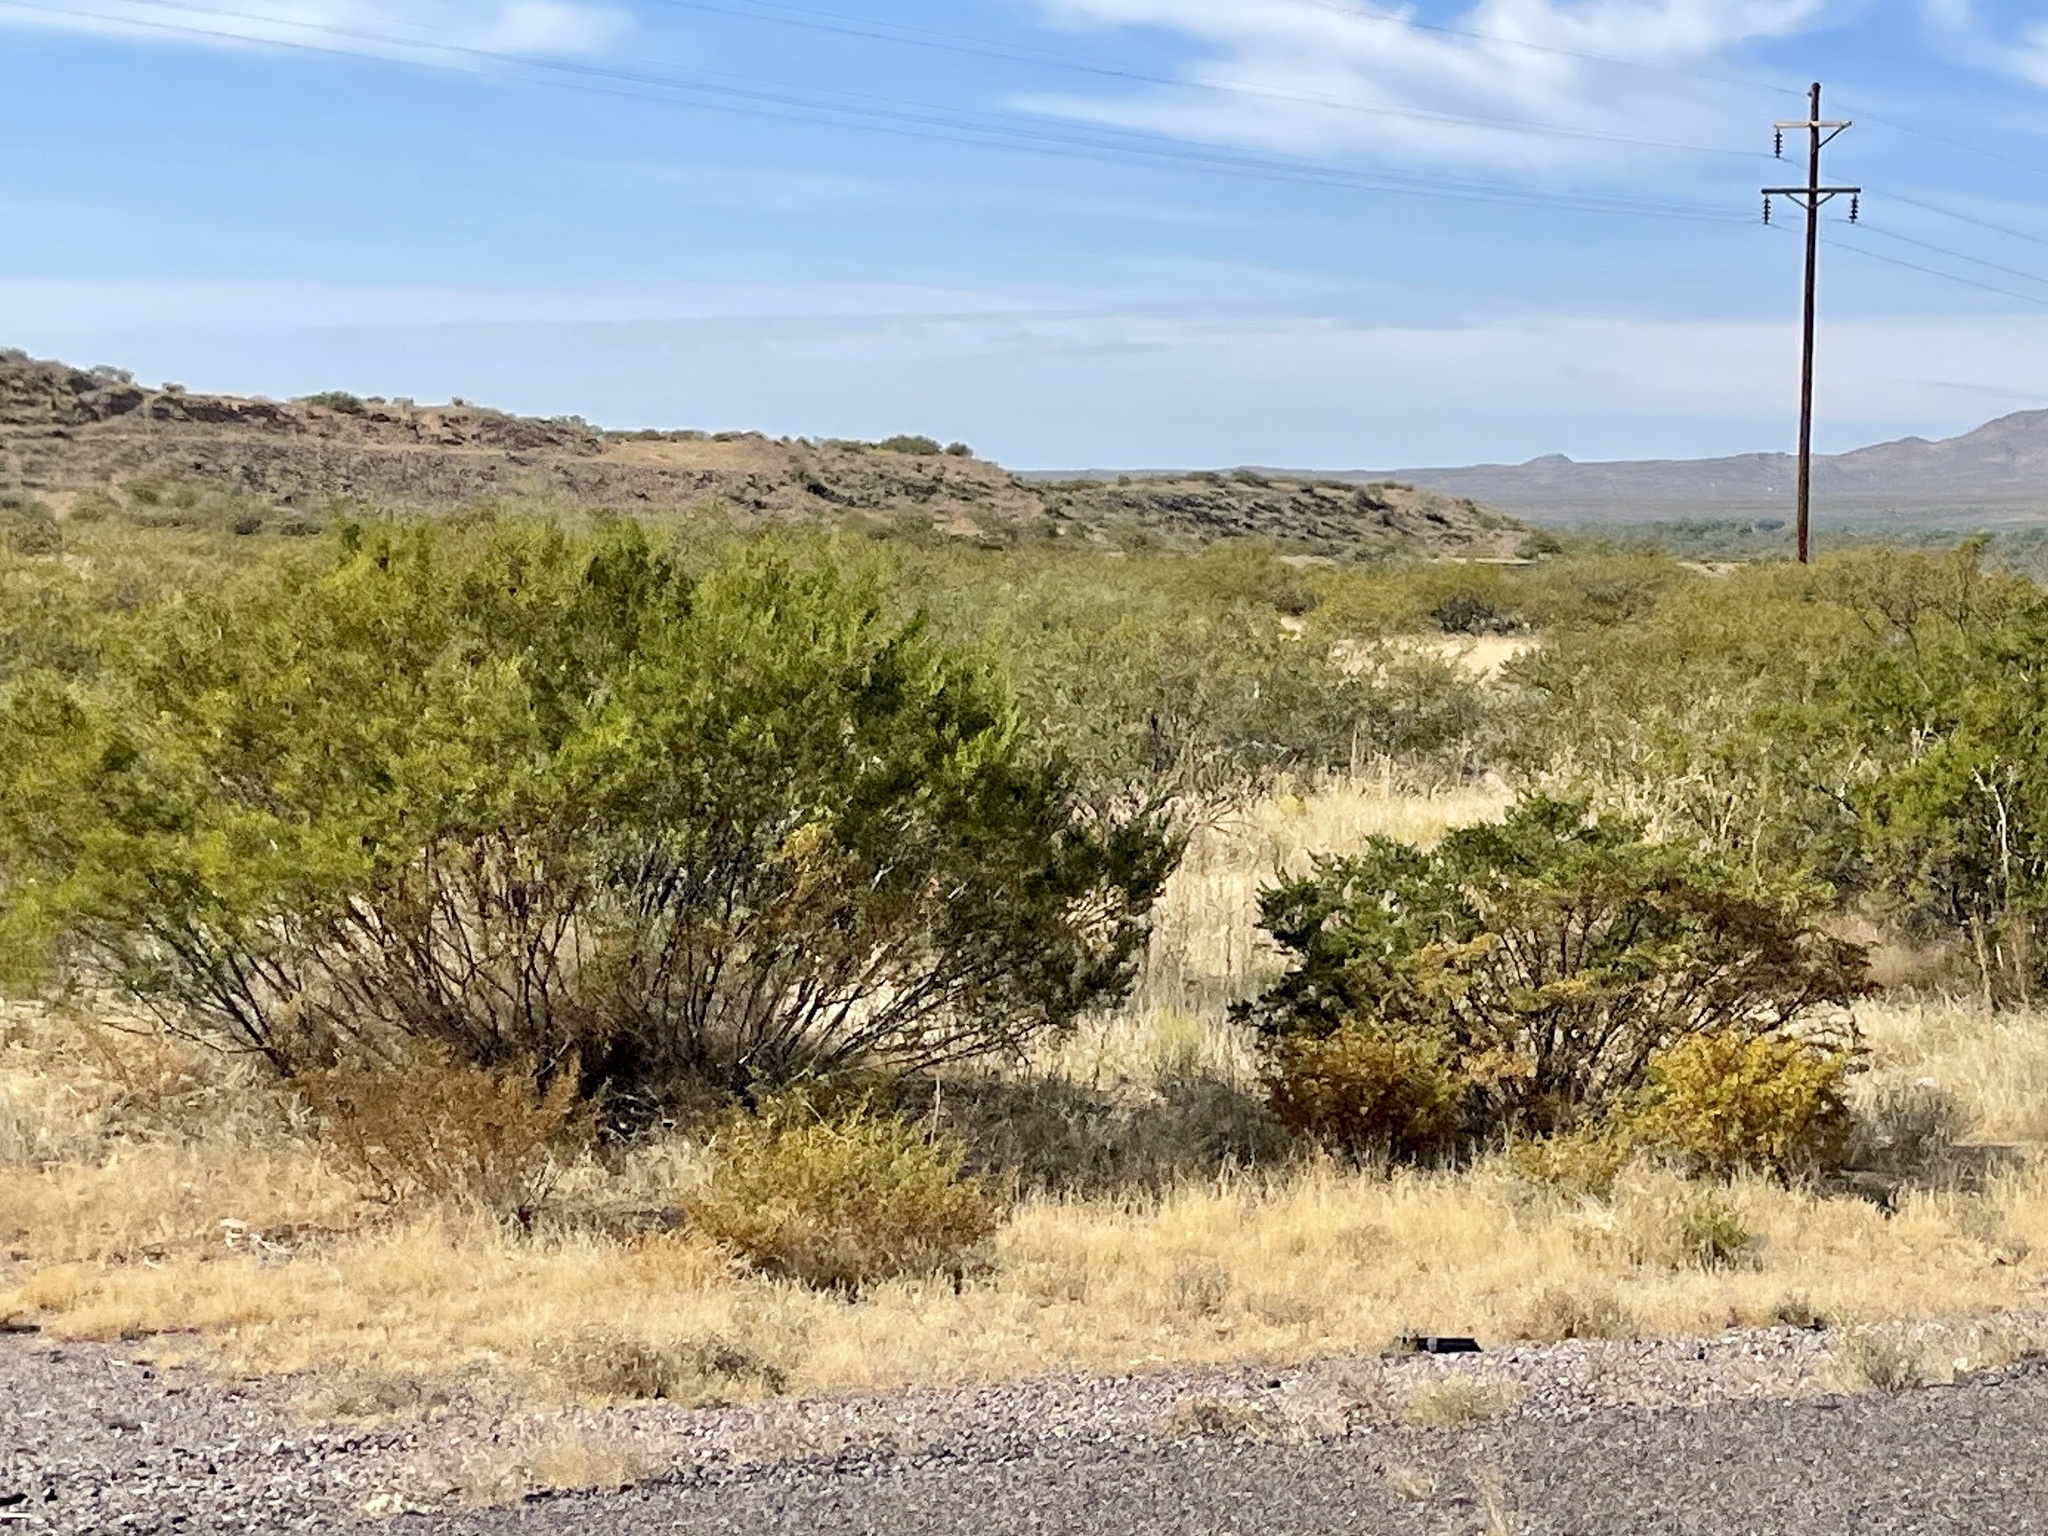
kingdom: Plantae
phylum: Tracheophyta
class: Magnoliopsida
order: Zygophyllales
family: Zygophyllaceae
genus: Larrea
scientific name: Larrea tridentata
